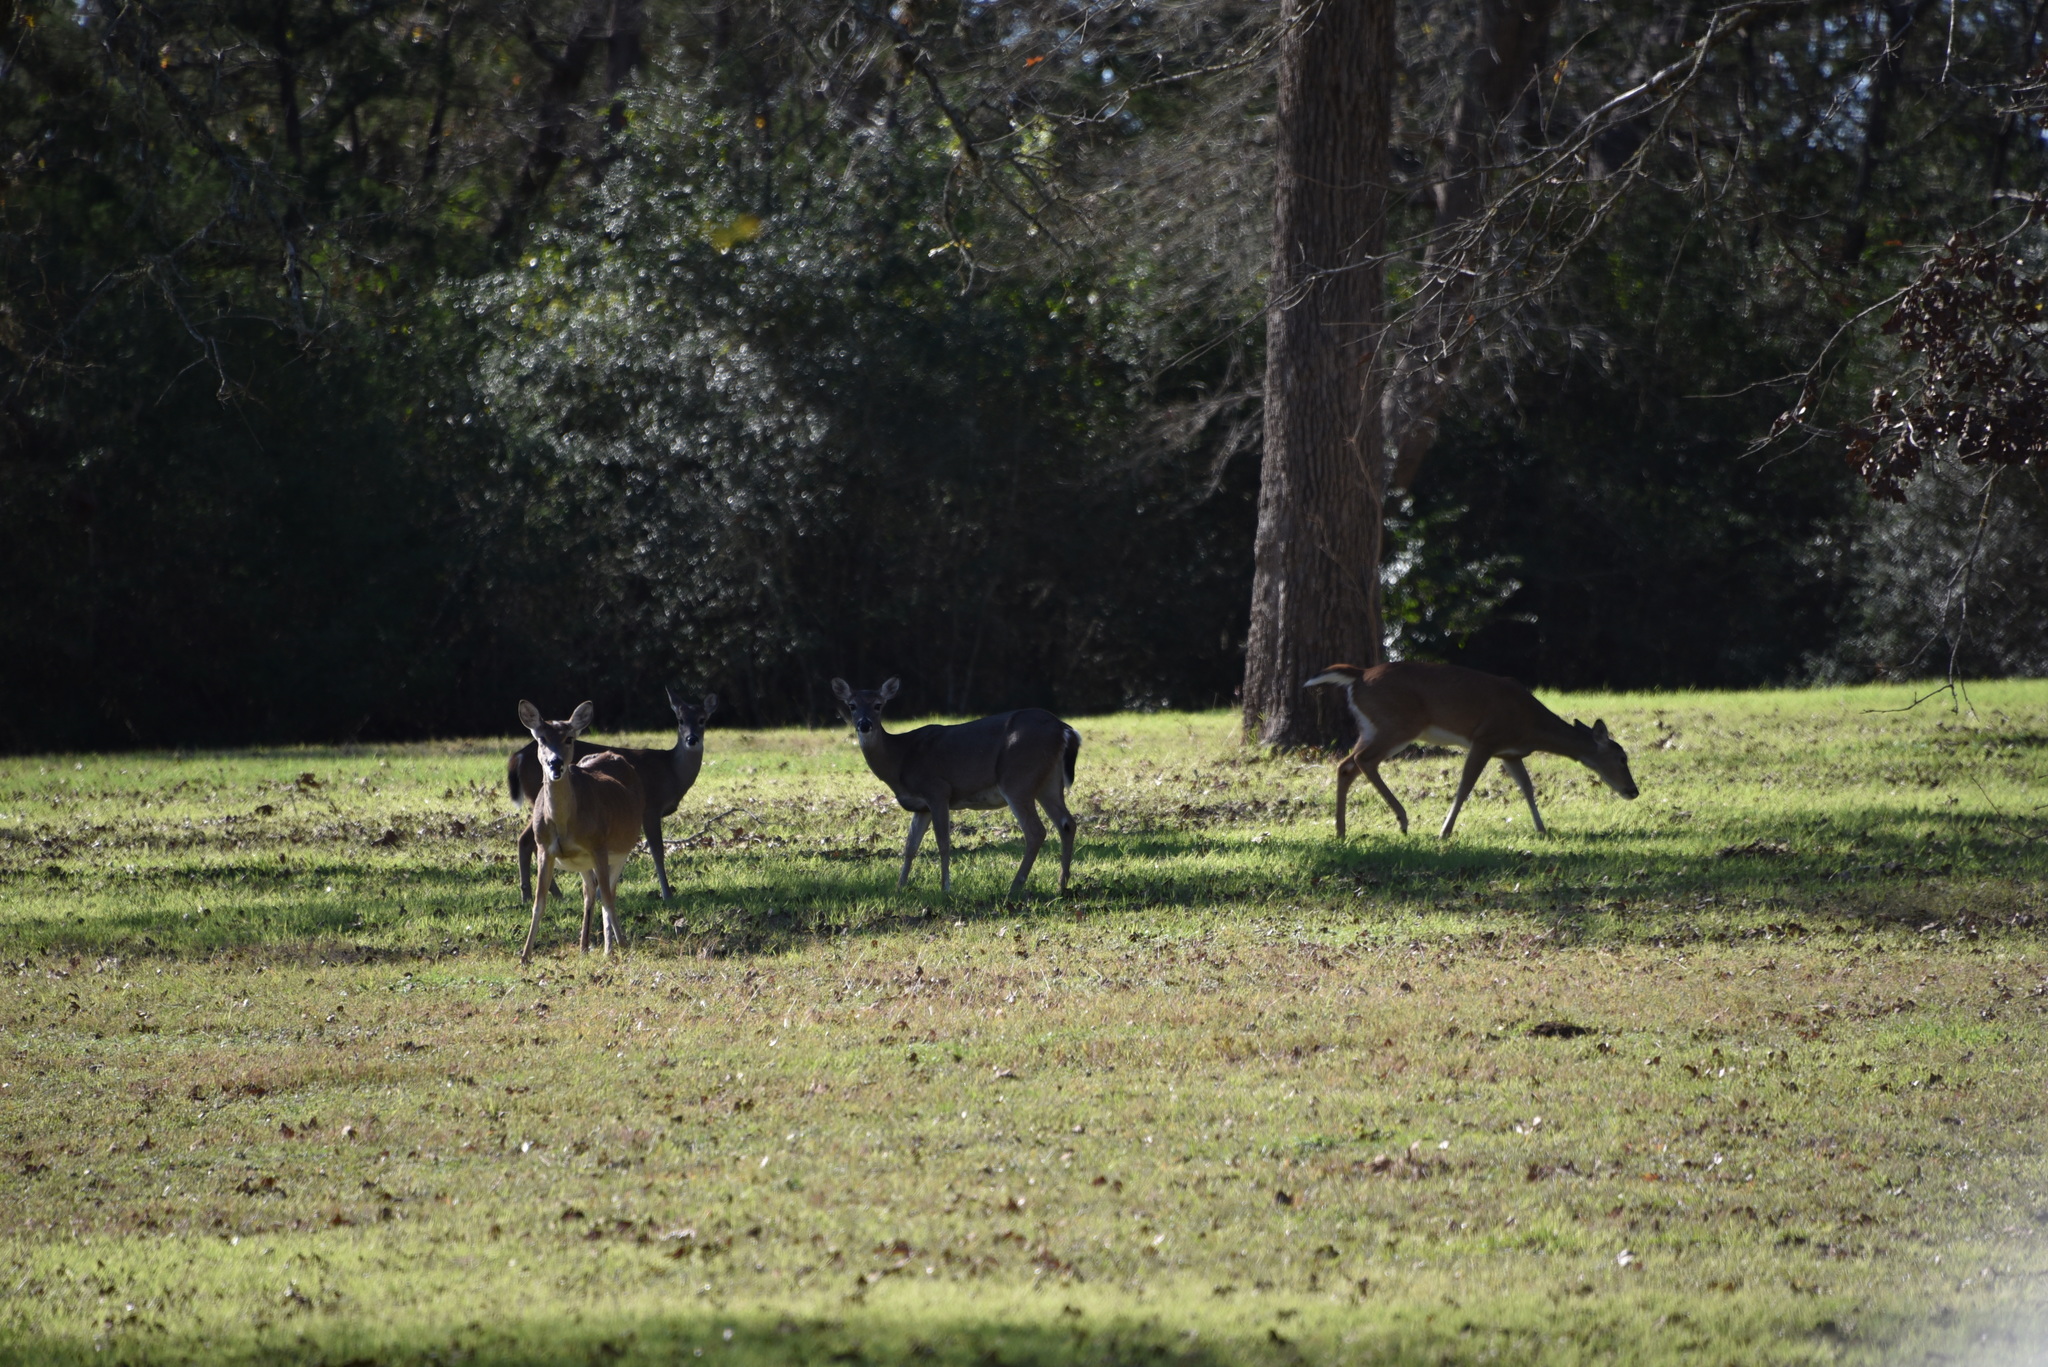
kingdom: Animalia
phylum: Chordata
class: Mammalia
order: Artiodactyla
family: Cervidae
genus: Odocoileus
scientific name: Odocoileus virginianus
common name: White-tailed deer
